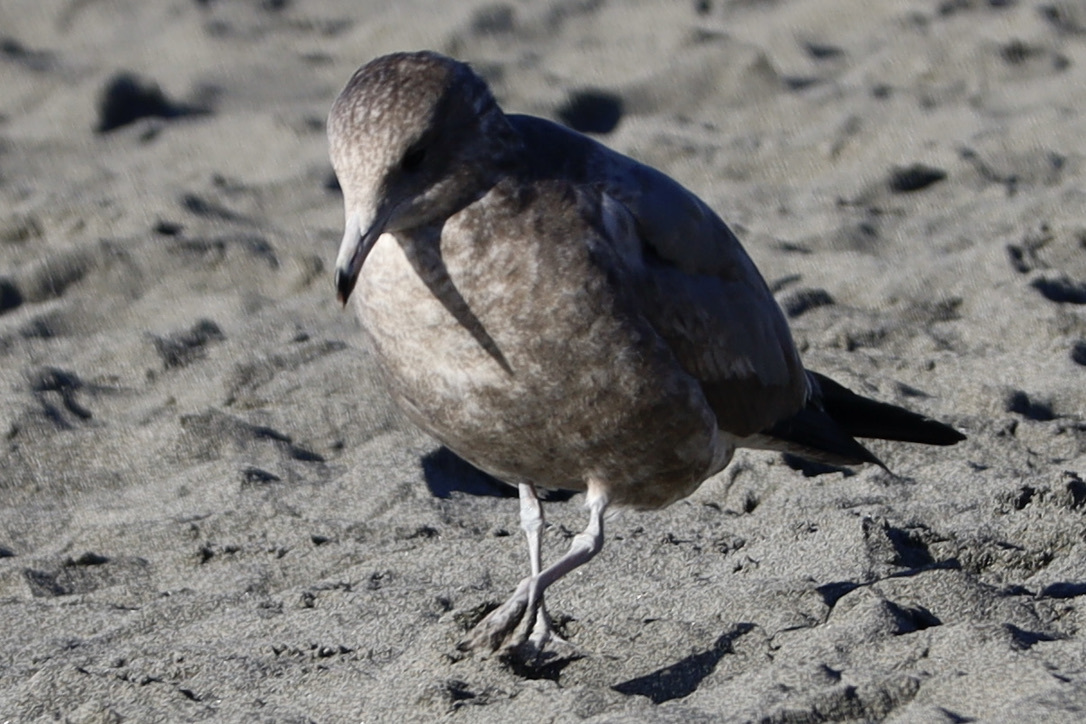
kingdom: Animalia
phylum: Chordata
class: Aves
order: Charadriiformes
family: Laridae
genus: Larus
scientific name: Larus californicus
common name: California gull
